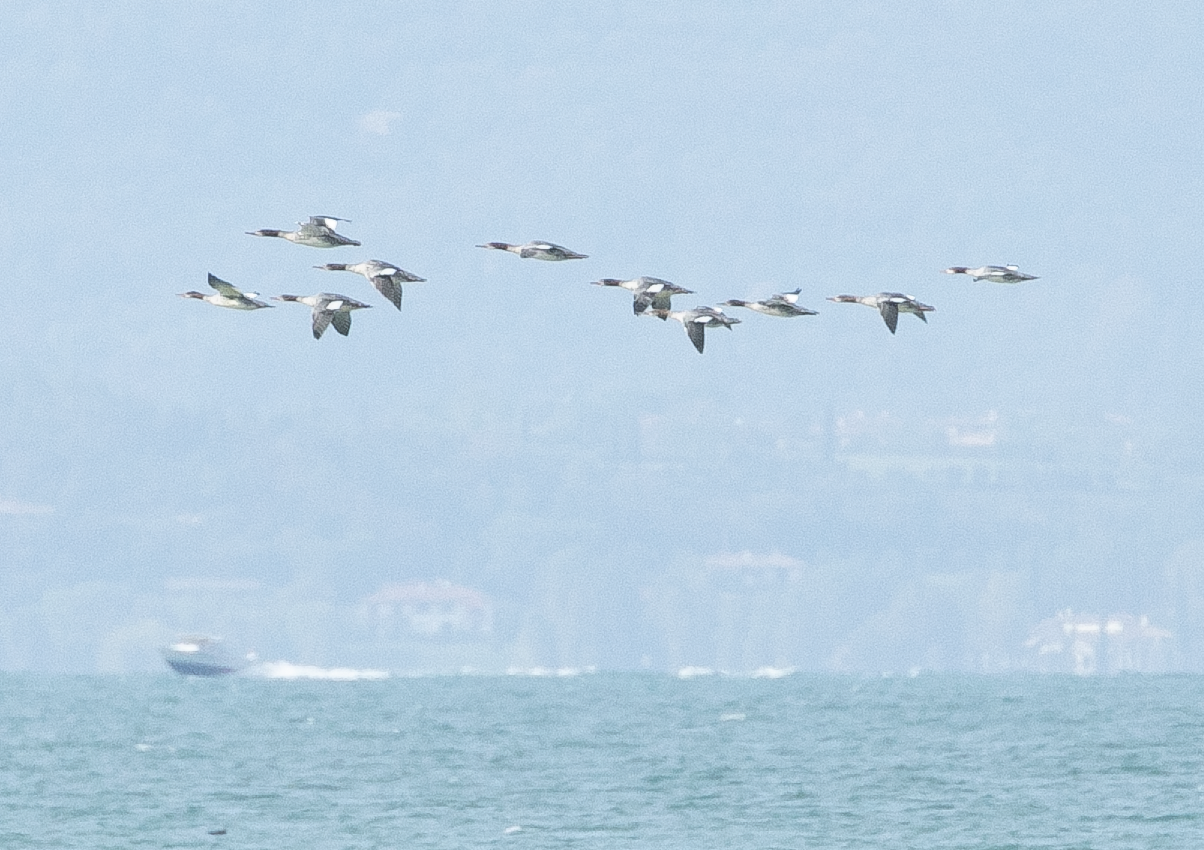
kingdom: Animalia
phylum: Chordata
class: Aves
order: Anseriformes
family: Anatidae
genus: Mergus
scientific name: Mergus merganser
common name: Common merganser
